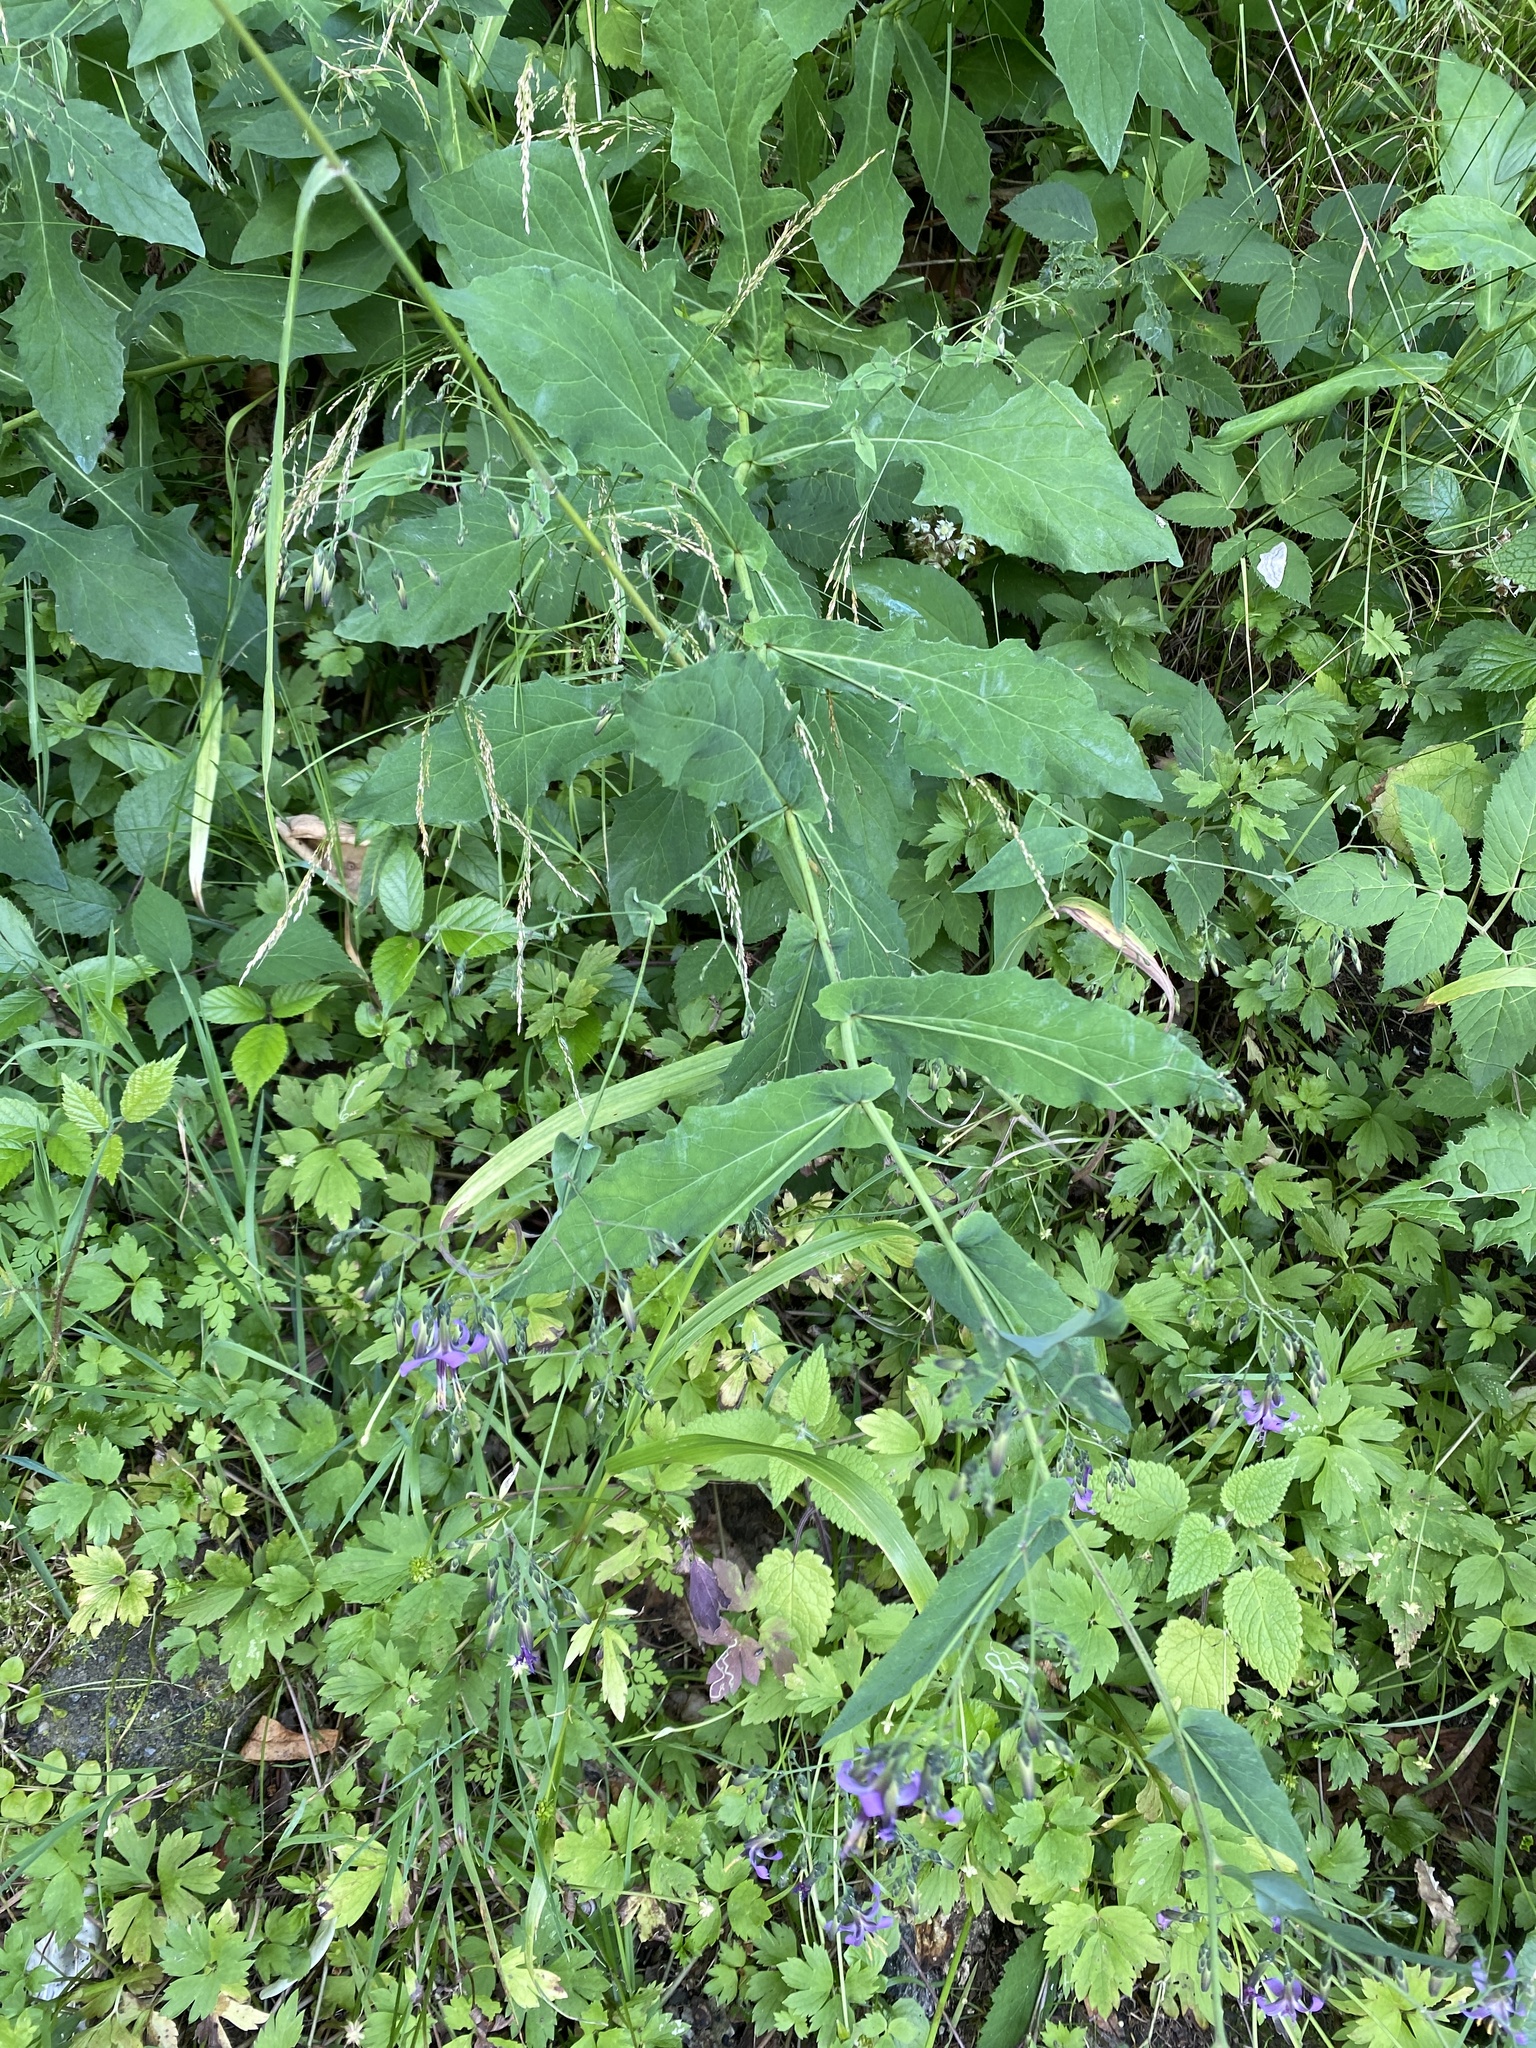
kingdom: Plantae
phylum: Tracheophyta
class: Magnoliopsida
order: Asterales
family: Asteraceae
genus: Prenanthes
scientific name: Prenanthes purpurea
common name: Purple lettuce
